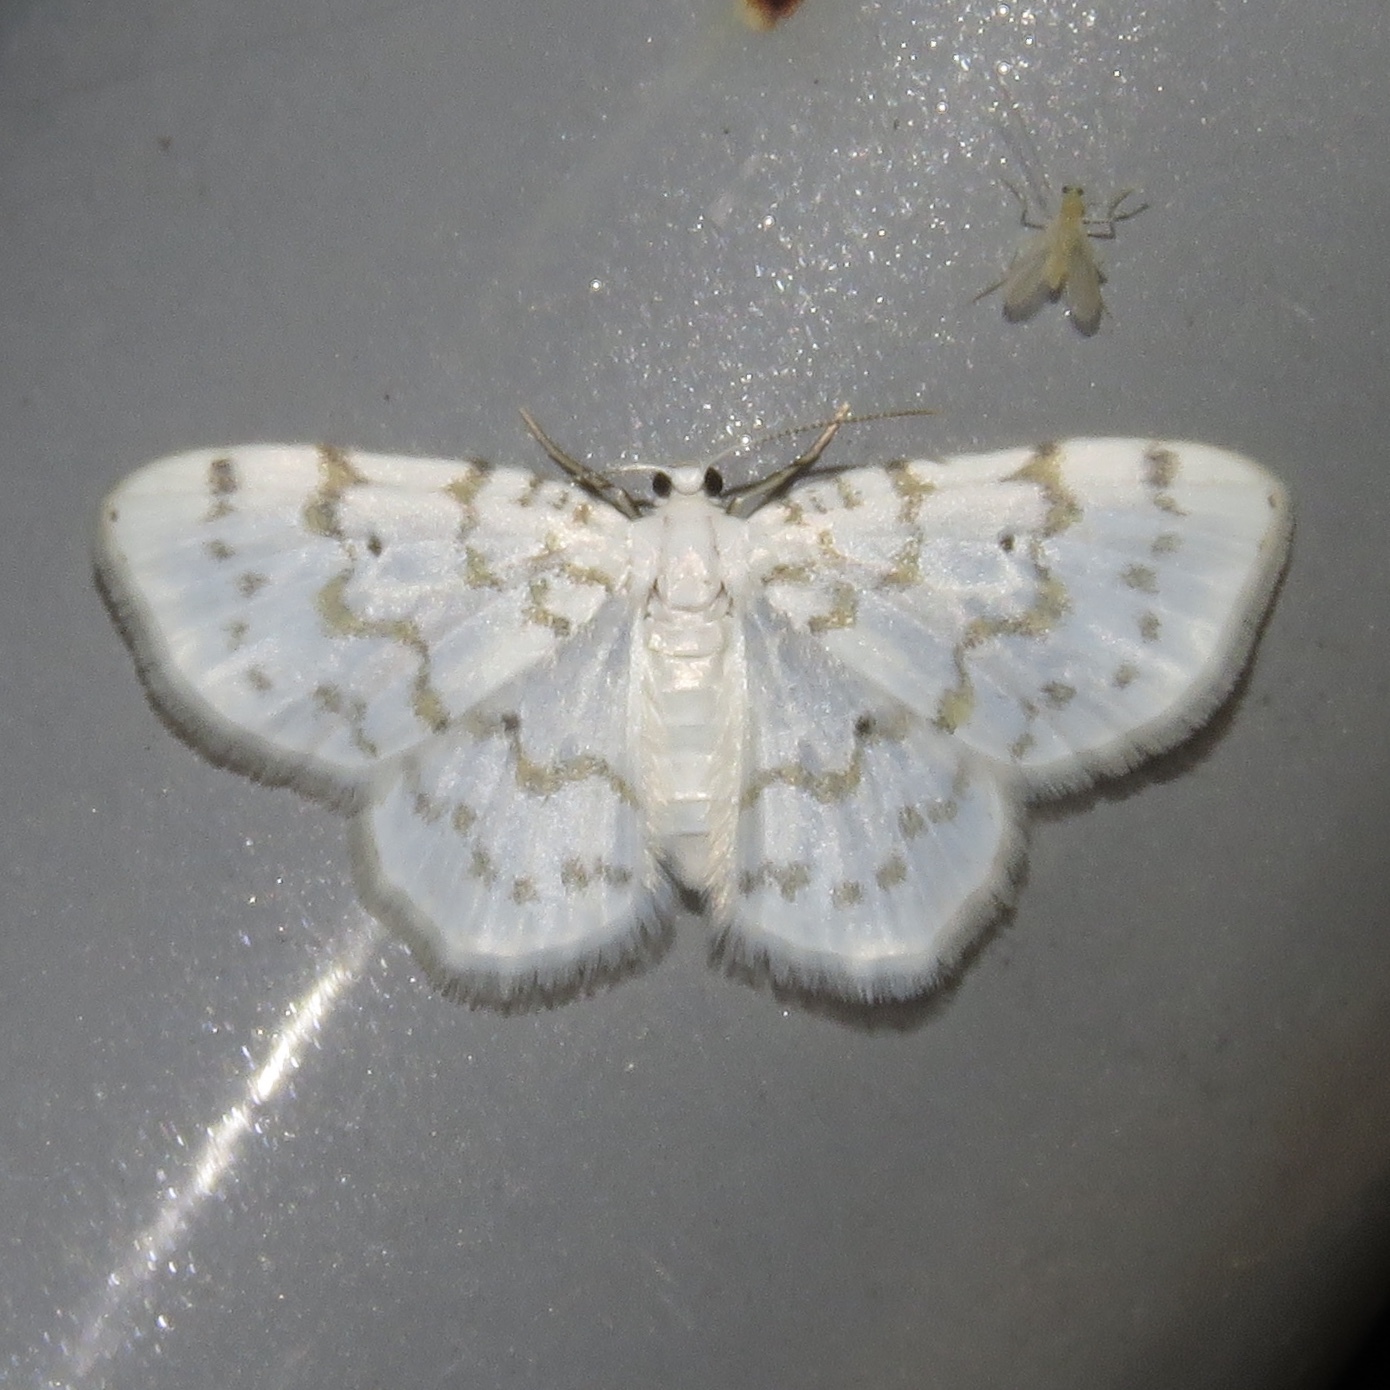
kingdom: Animalia
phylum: Arthropoda
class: Insecta
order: Lepidoptera
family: Geometridae
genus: Hydrelia
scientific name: Hydrelia albifera
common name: Fragile white carpet
